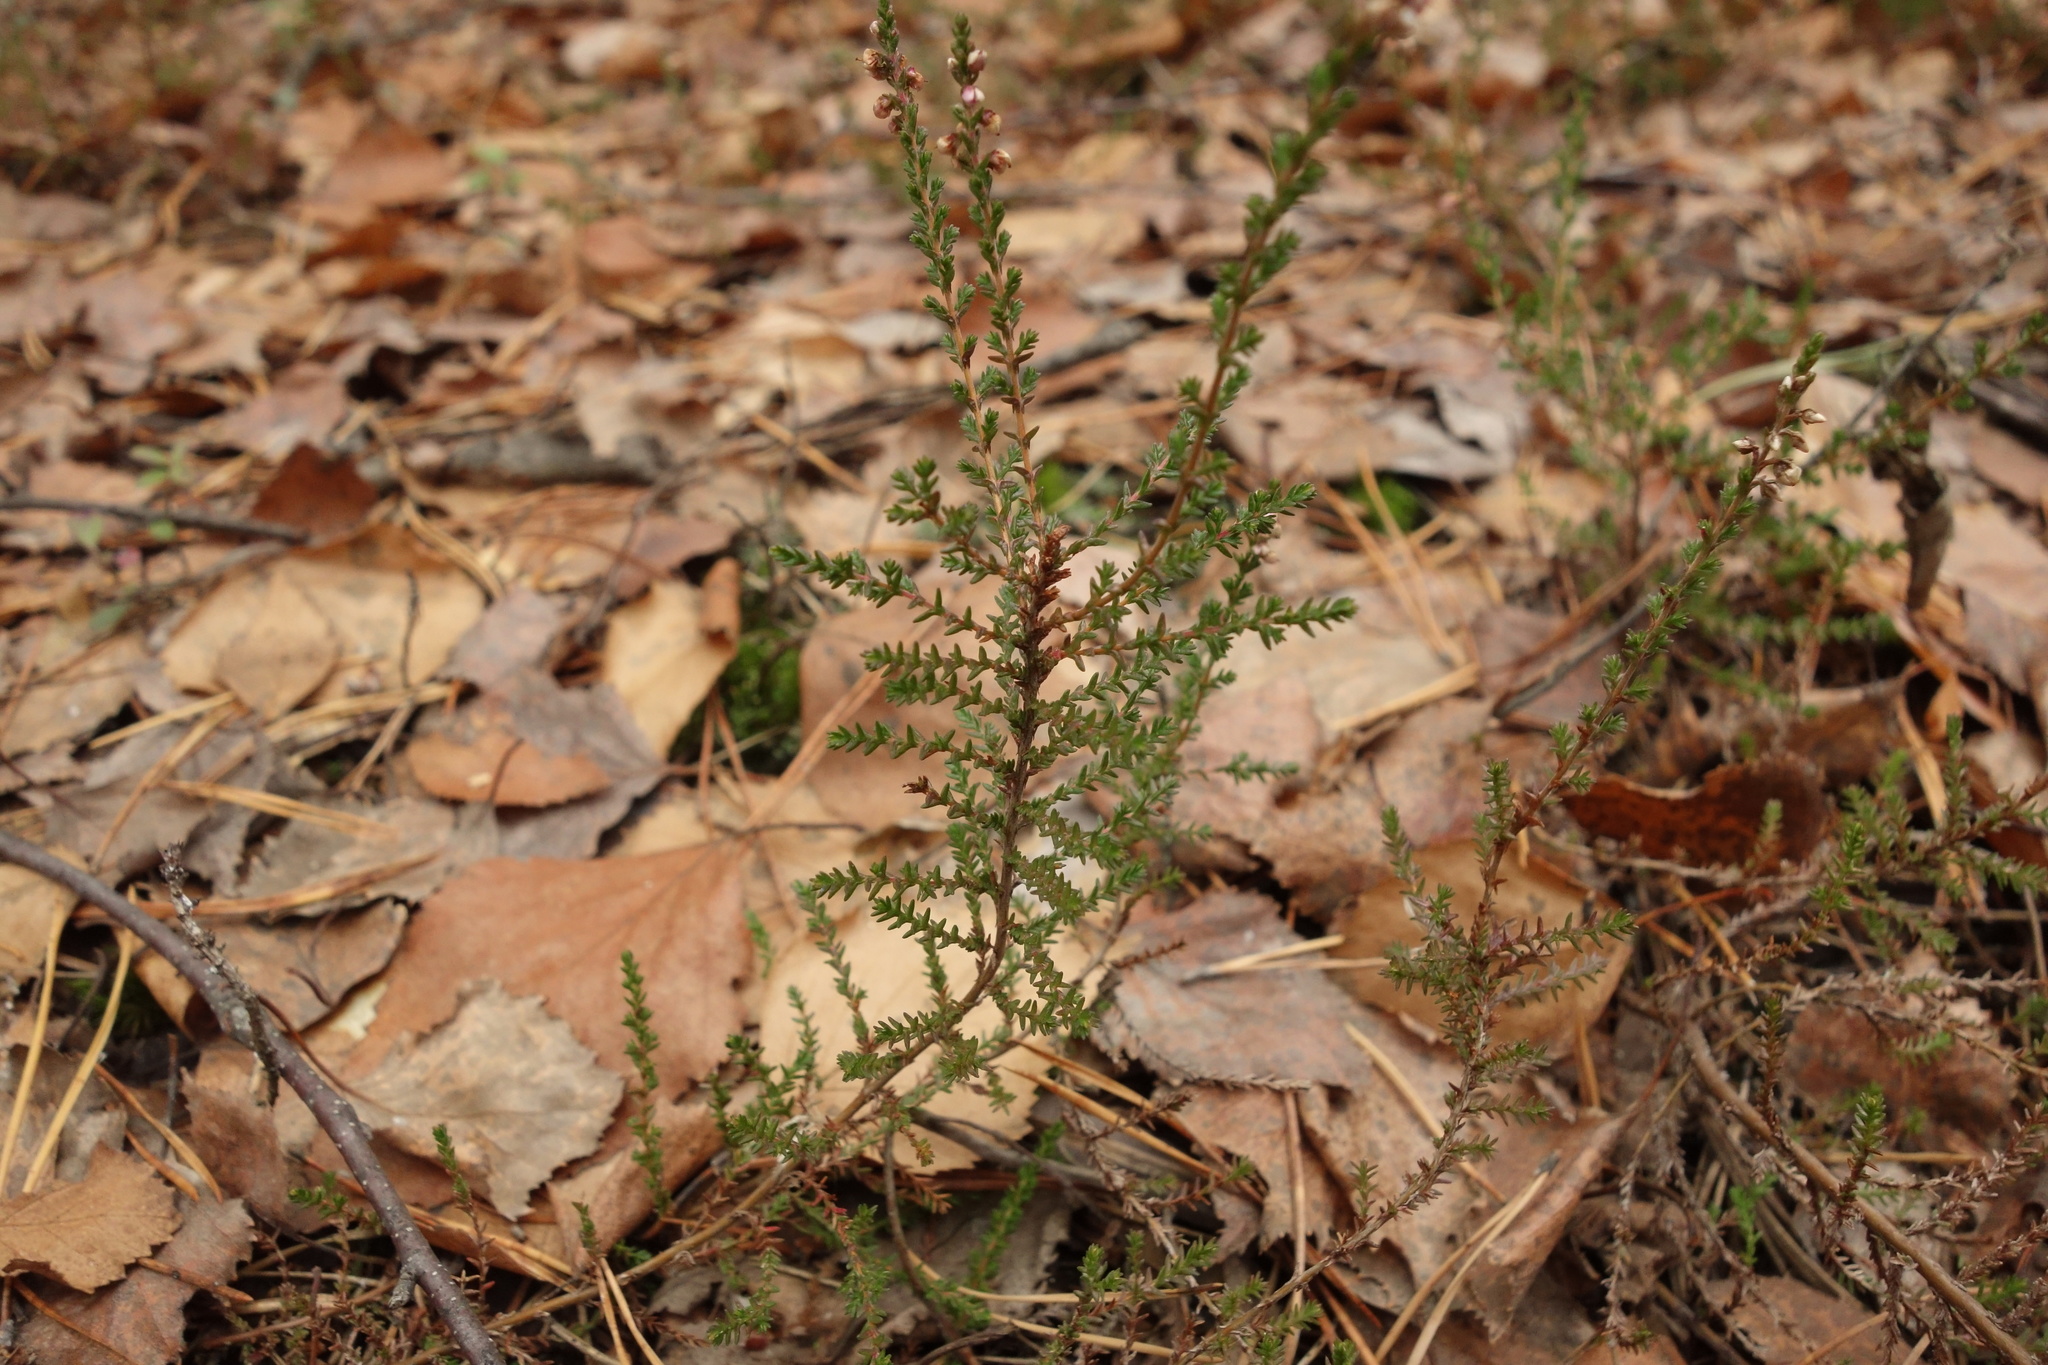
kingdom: Plantae
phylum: Tracheophyta
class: Magnoliopsida
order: Ericales
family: Ericaceae
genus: Calluna
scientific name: Calluna vulgaris
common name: Heather
